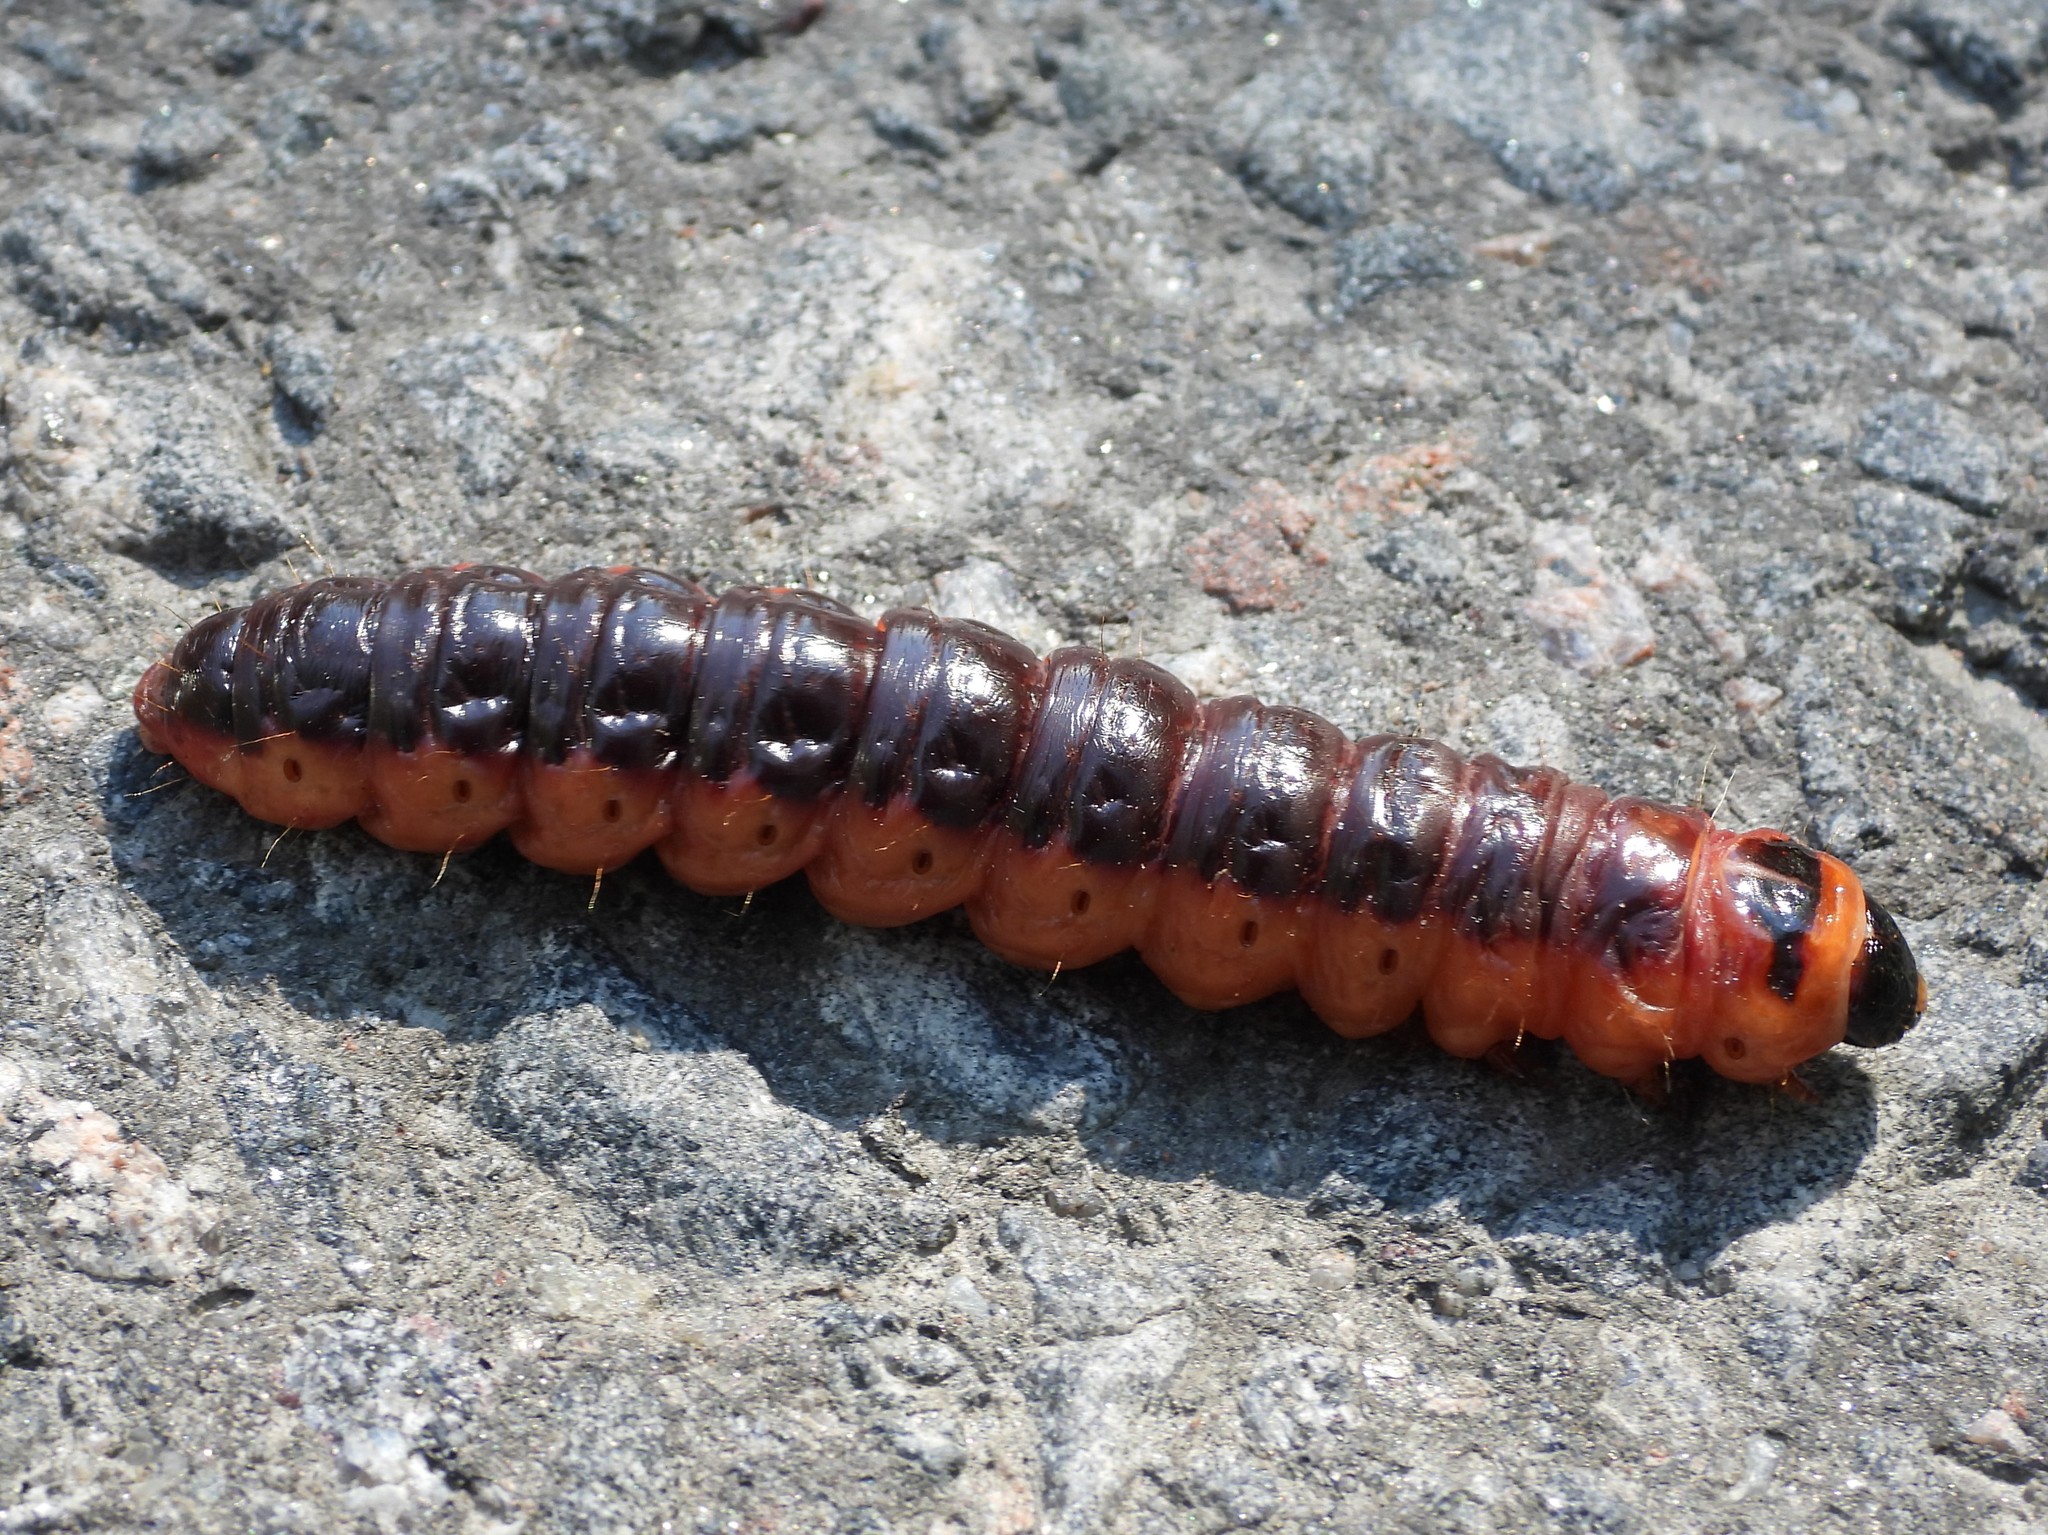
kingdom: Animalia
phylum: Arthropoda
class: Insecta
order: Lepidoptera
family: Cossidae
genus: Cossus
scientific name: Cossus cossus
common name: Goat moth
